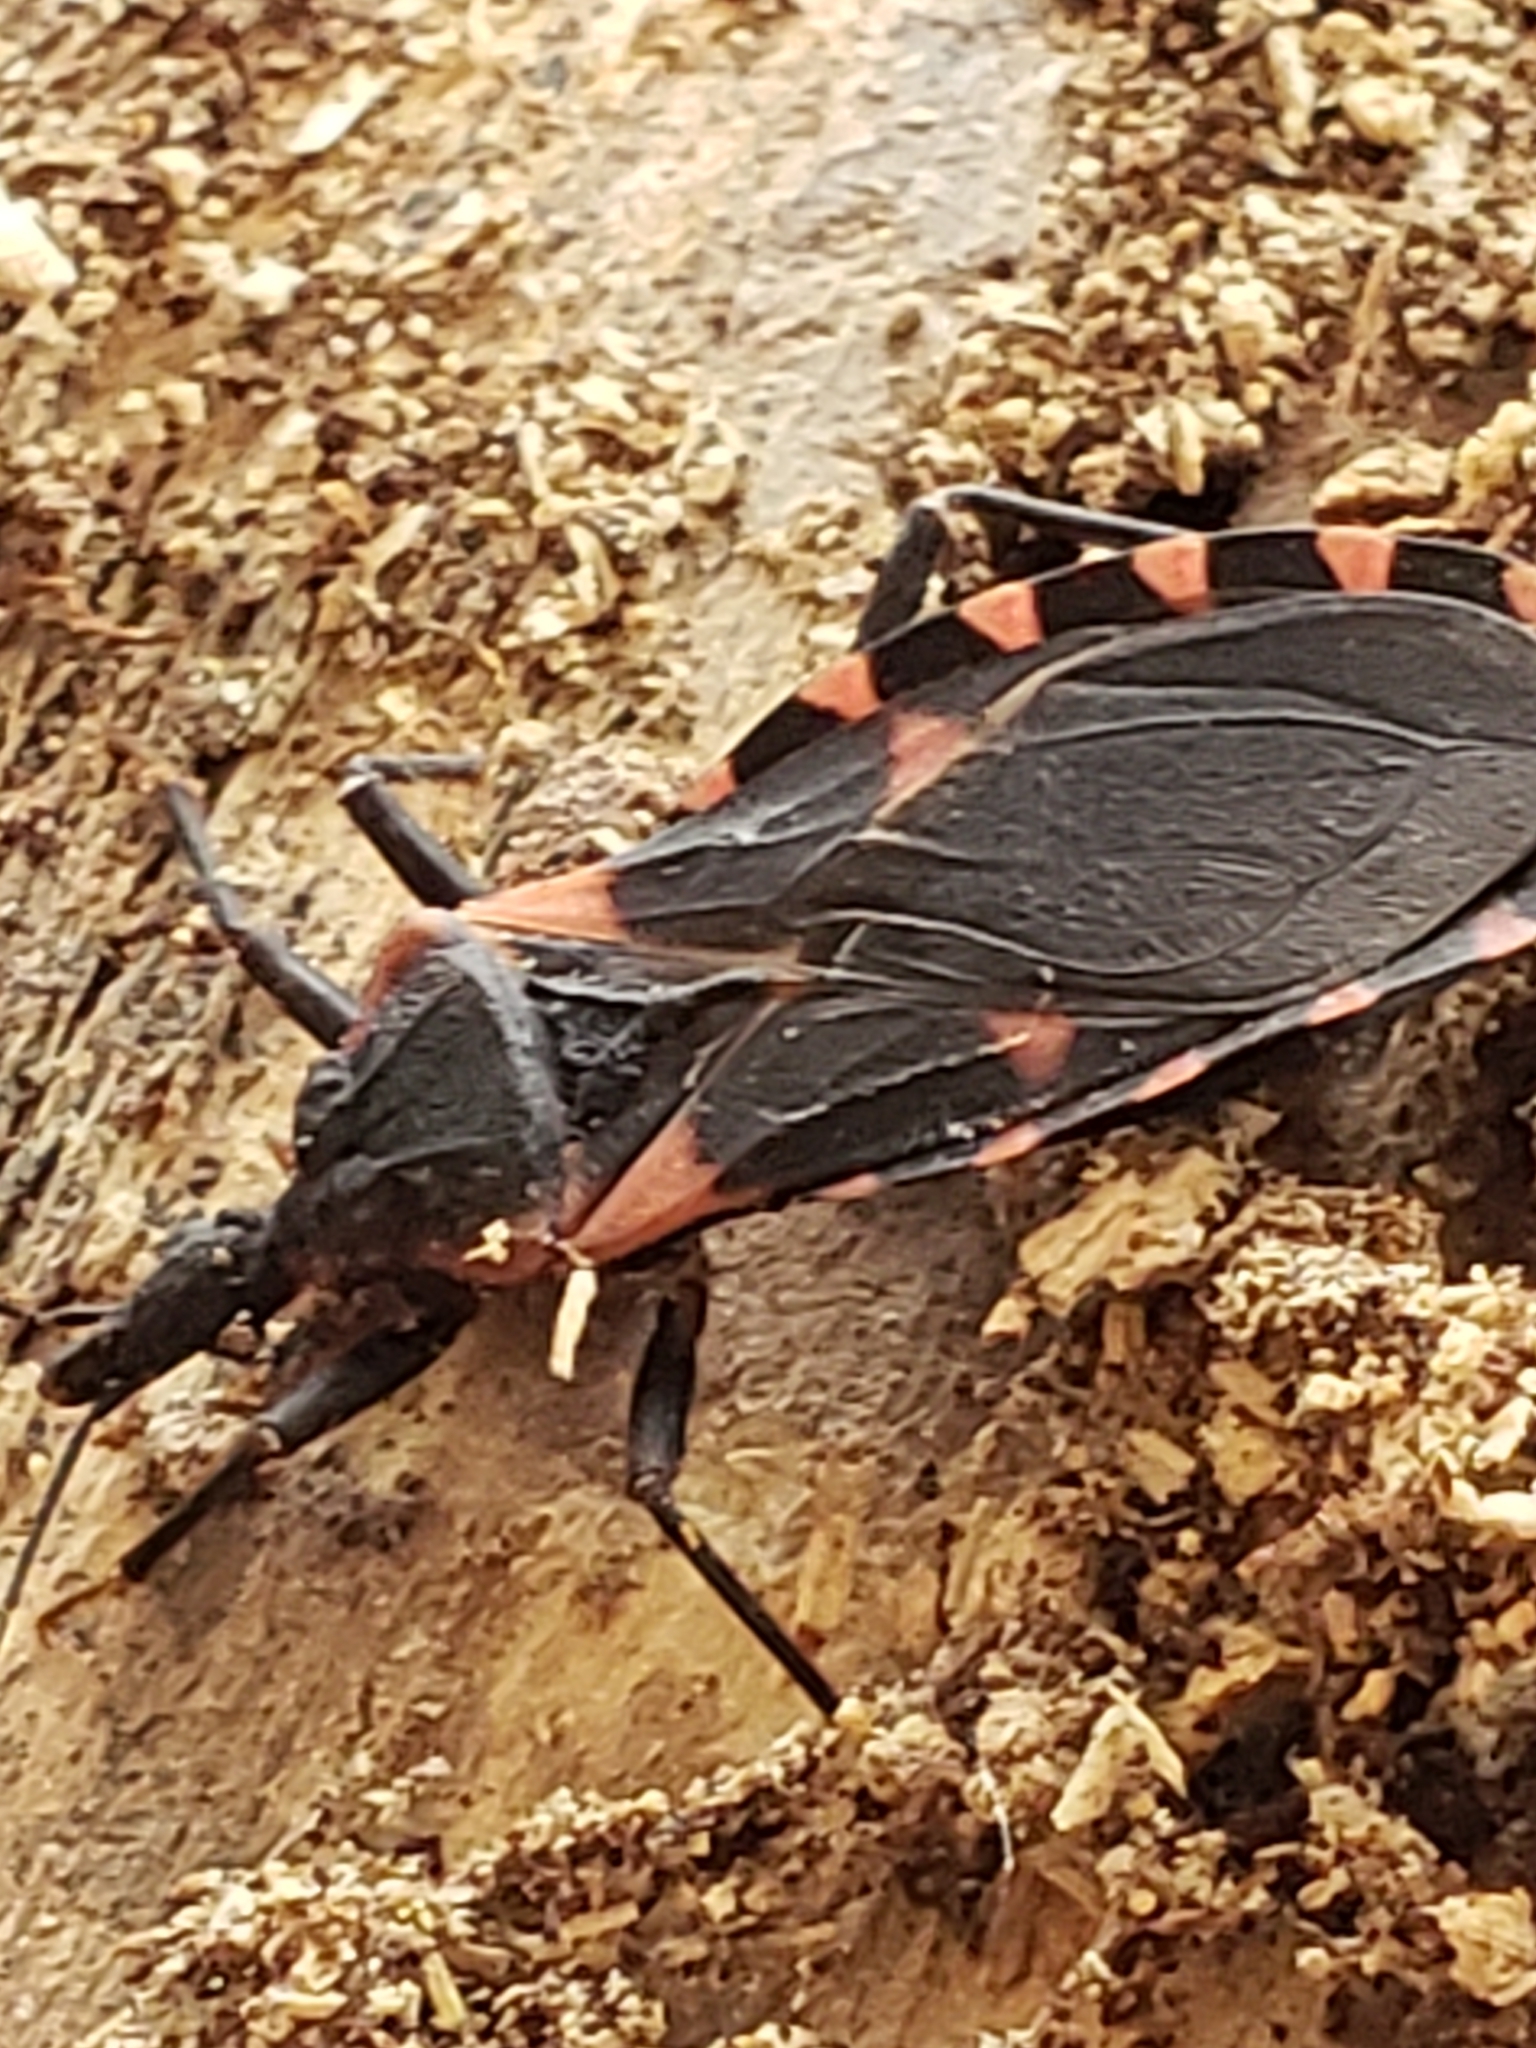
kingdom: Animalia
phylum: Arthropoda
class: Insecta
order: Hemiptera
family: Reduviidae
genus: Triatoma
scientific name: Triatoma sanguisuga
